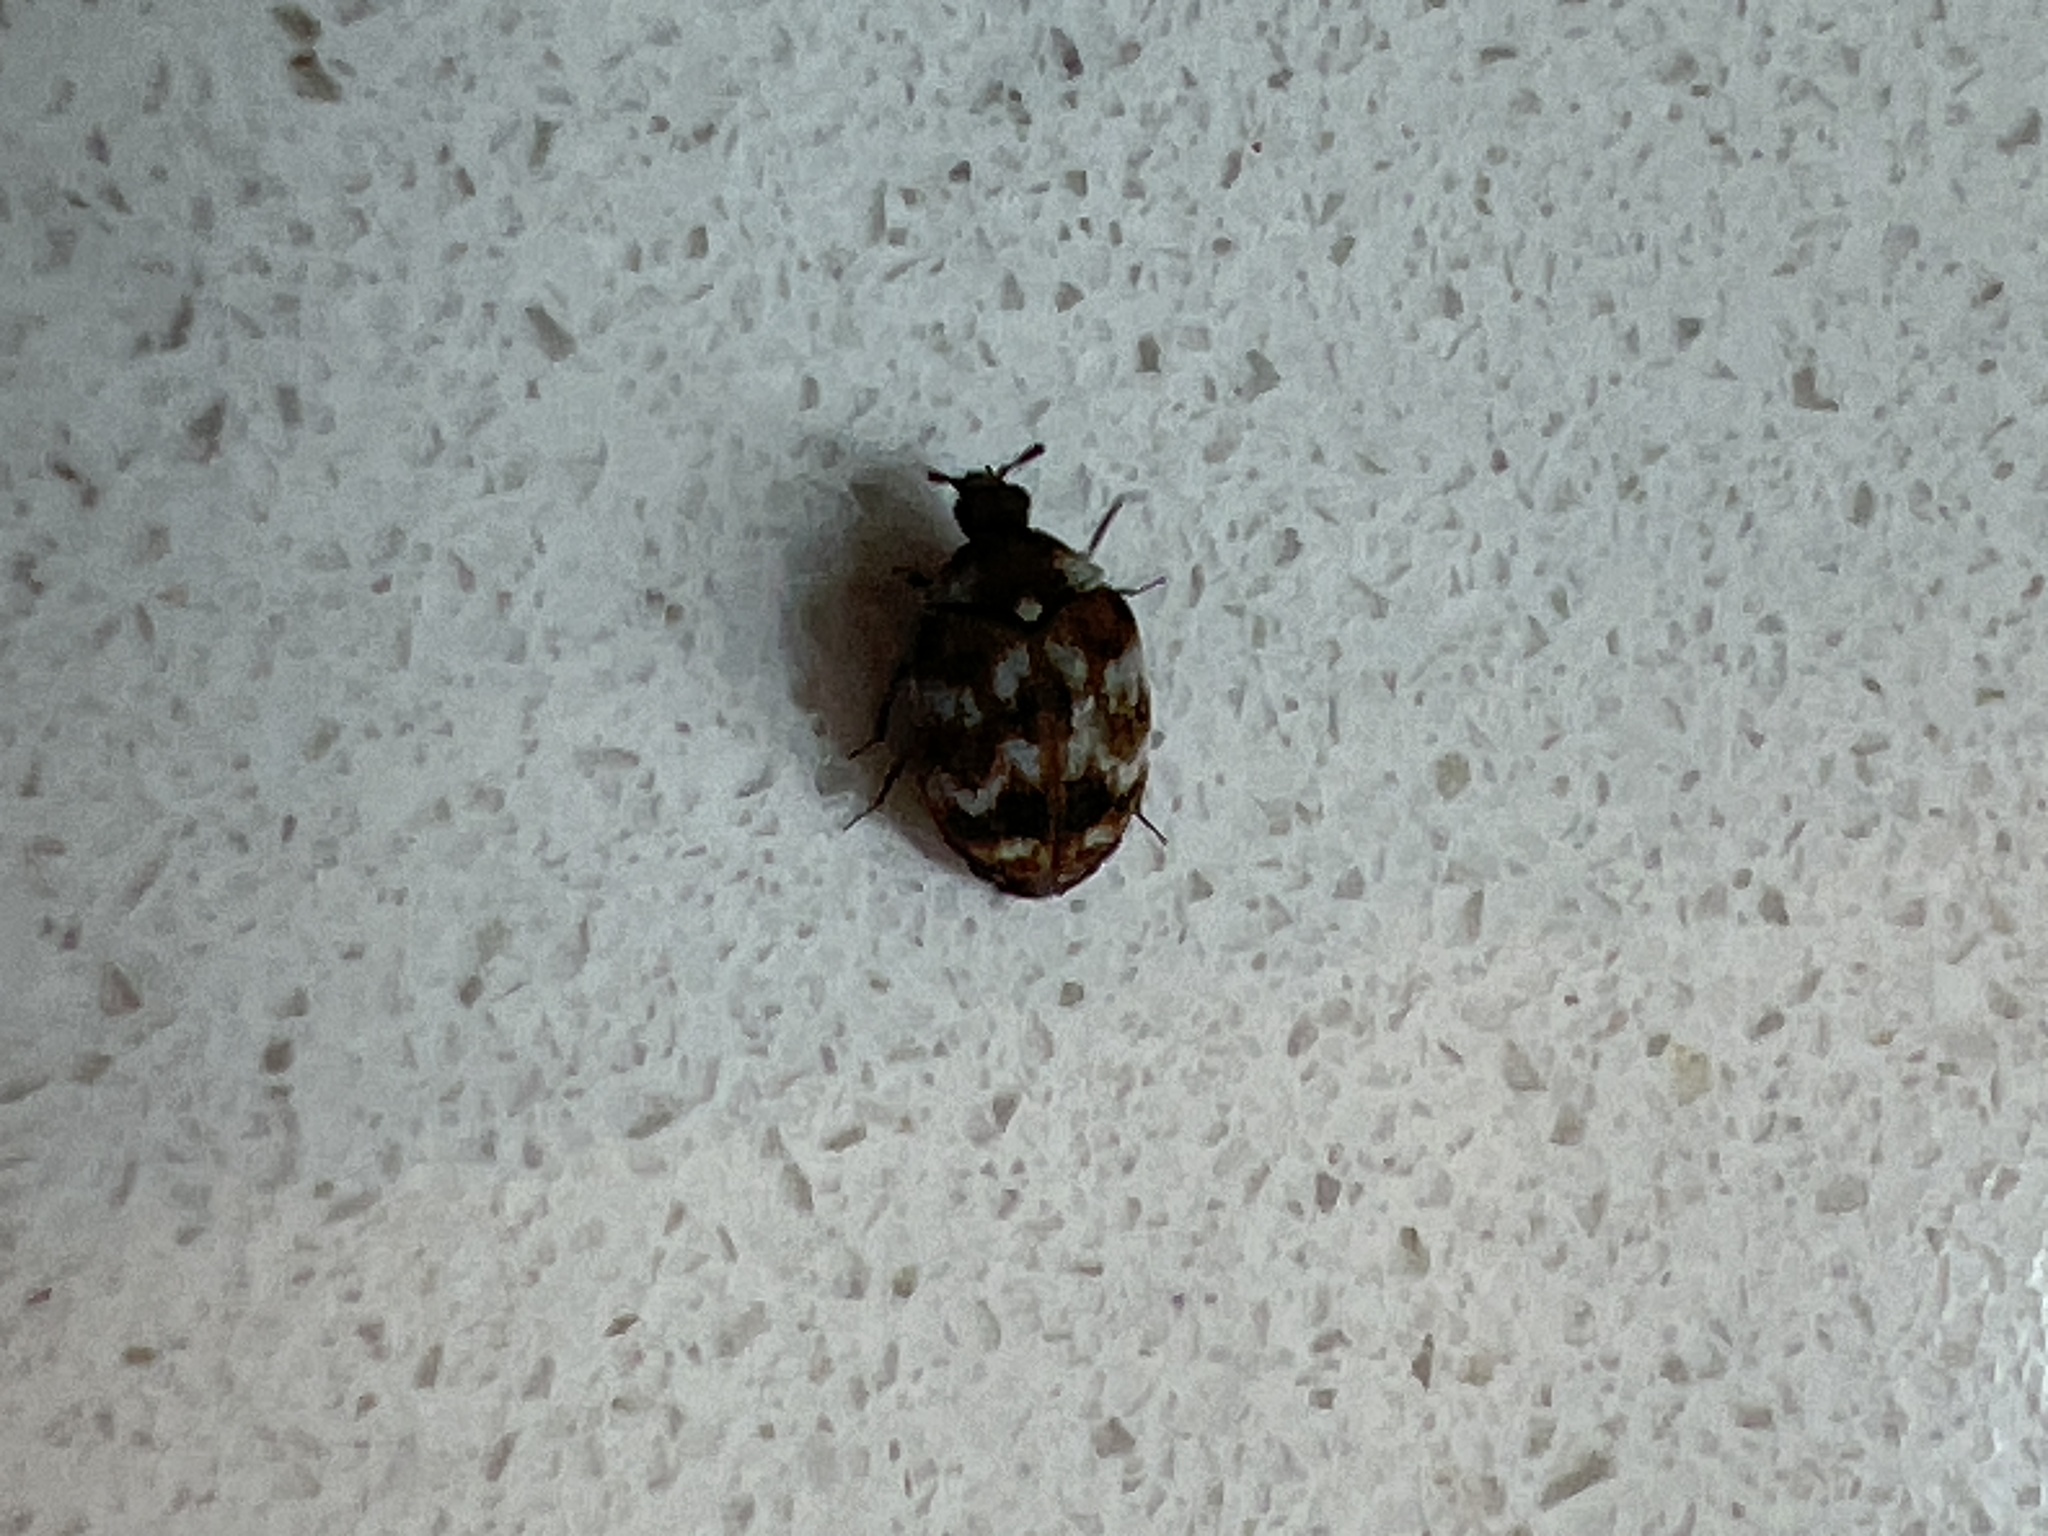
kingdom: Animalia
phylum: Arthropoda
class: Insecta
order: Coleoptera
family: Dermestidae
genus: Anthrenus
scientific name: Anthrenus verbasci
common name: Varied carpet beetle
